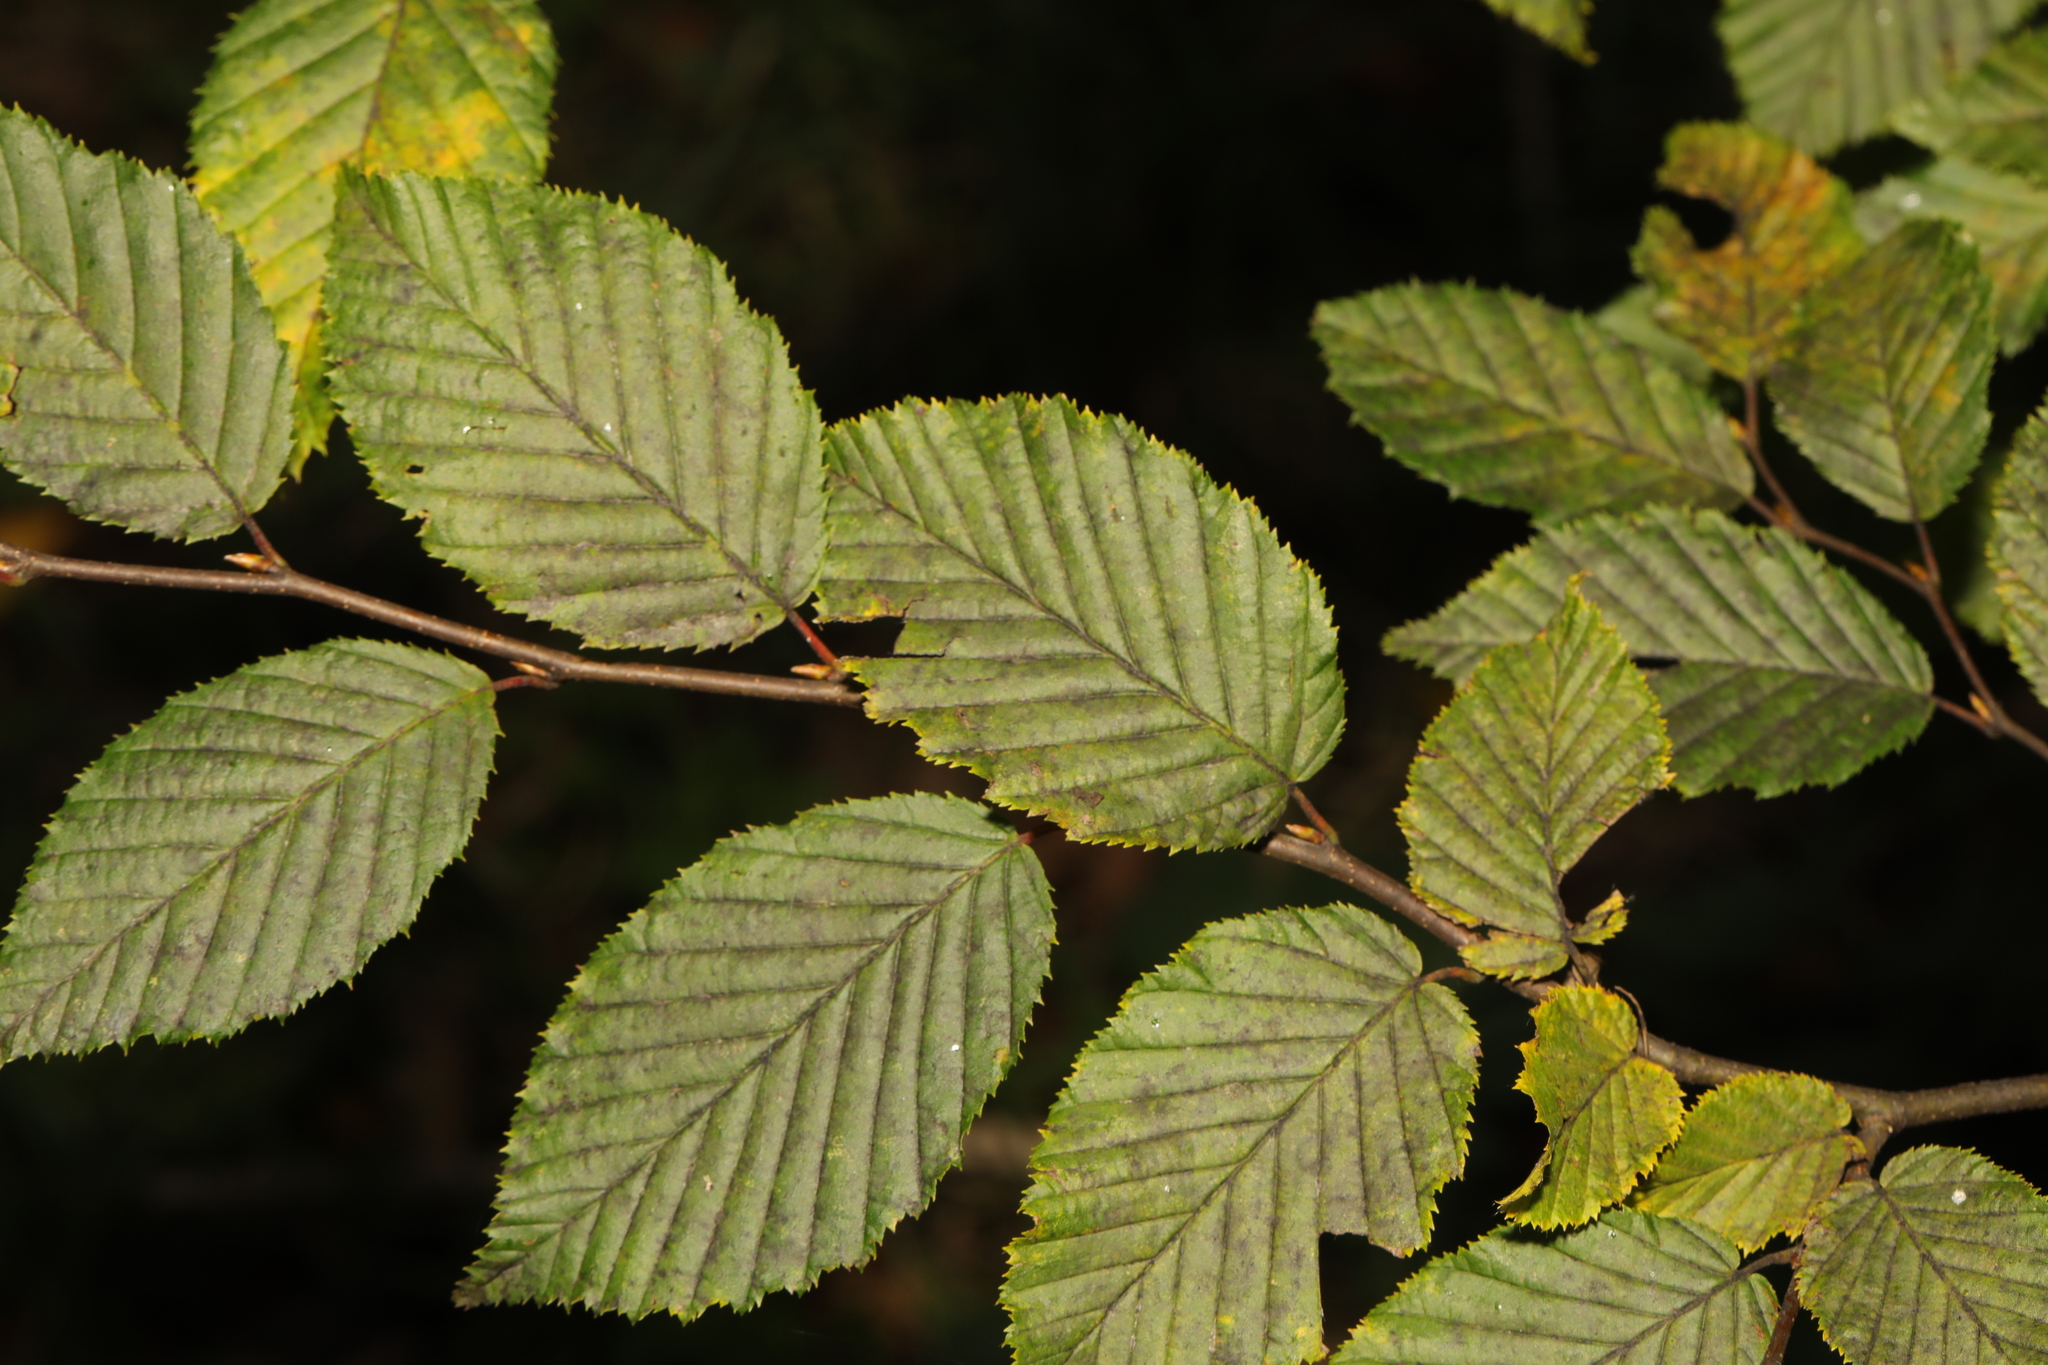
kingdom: Plantae
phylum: Tracheophyta
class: Magnoliopsida
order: Fagales
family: Betulaceae
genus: Carpinus
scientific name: Carpinus betulus
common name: Hornbeam
